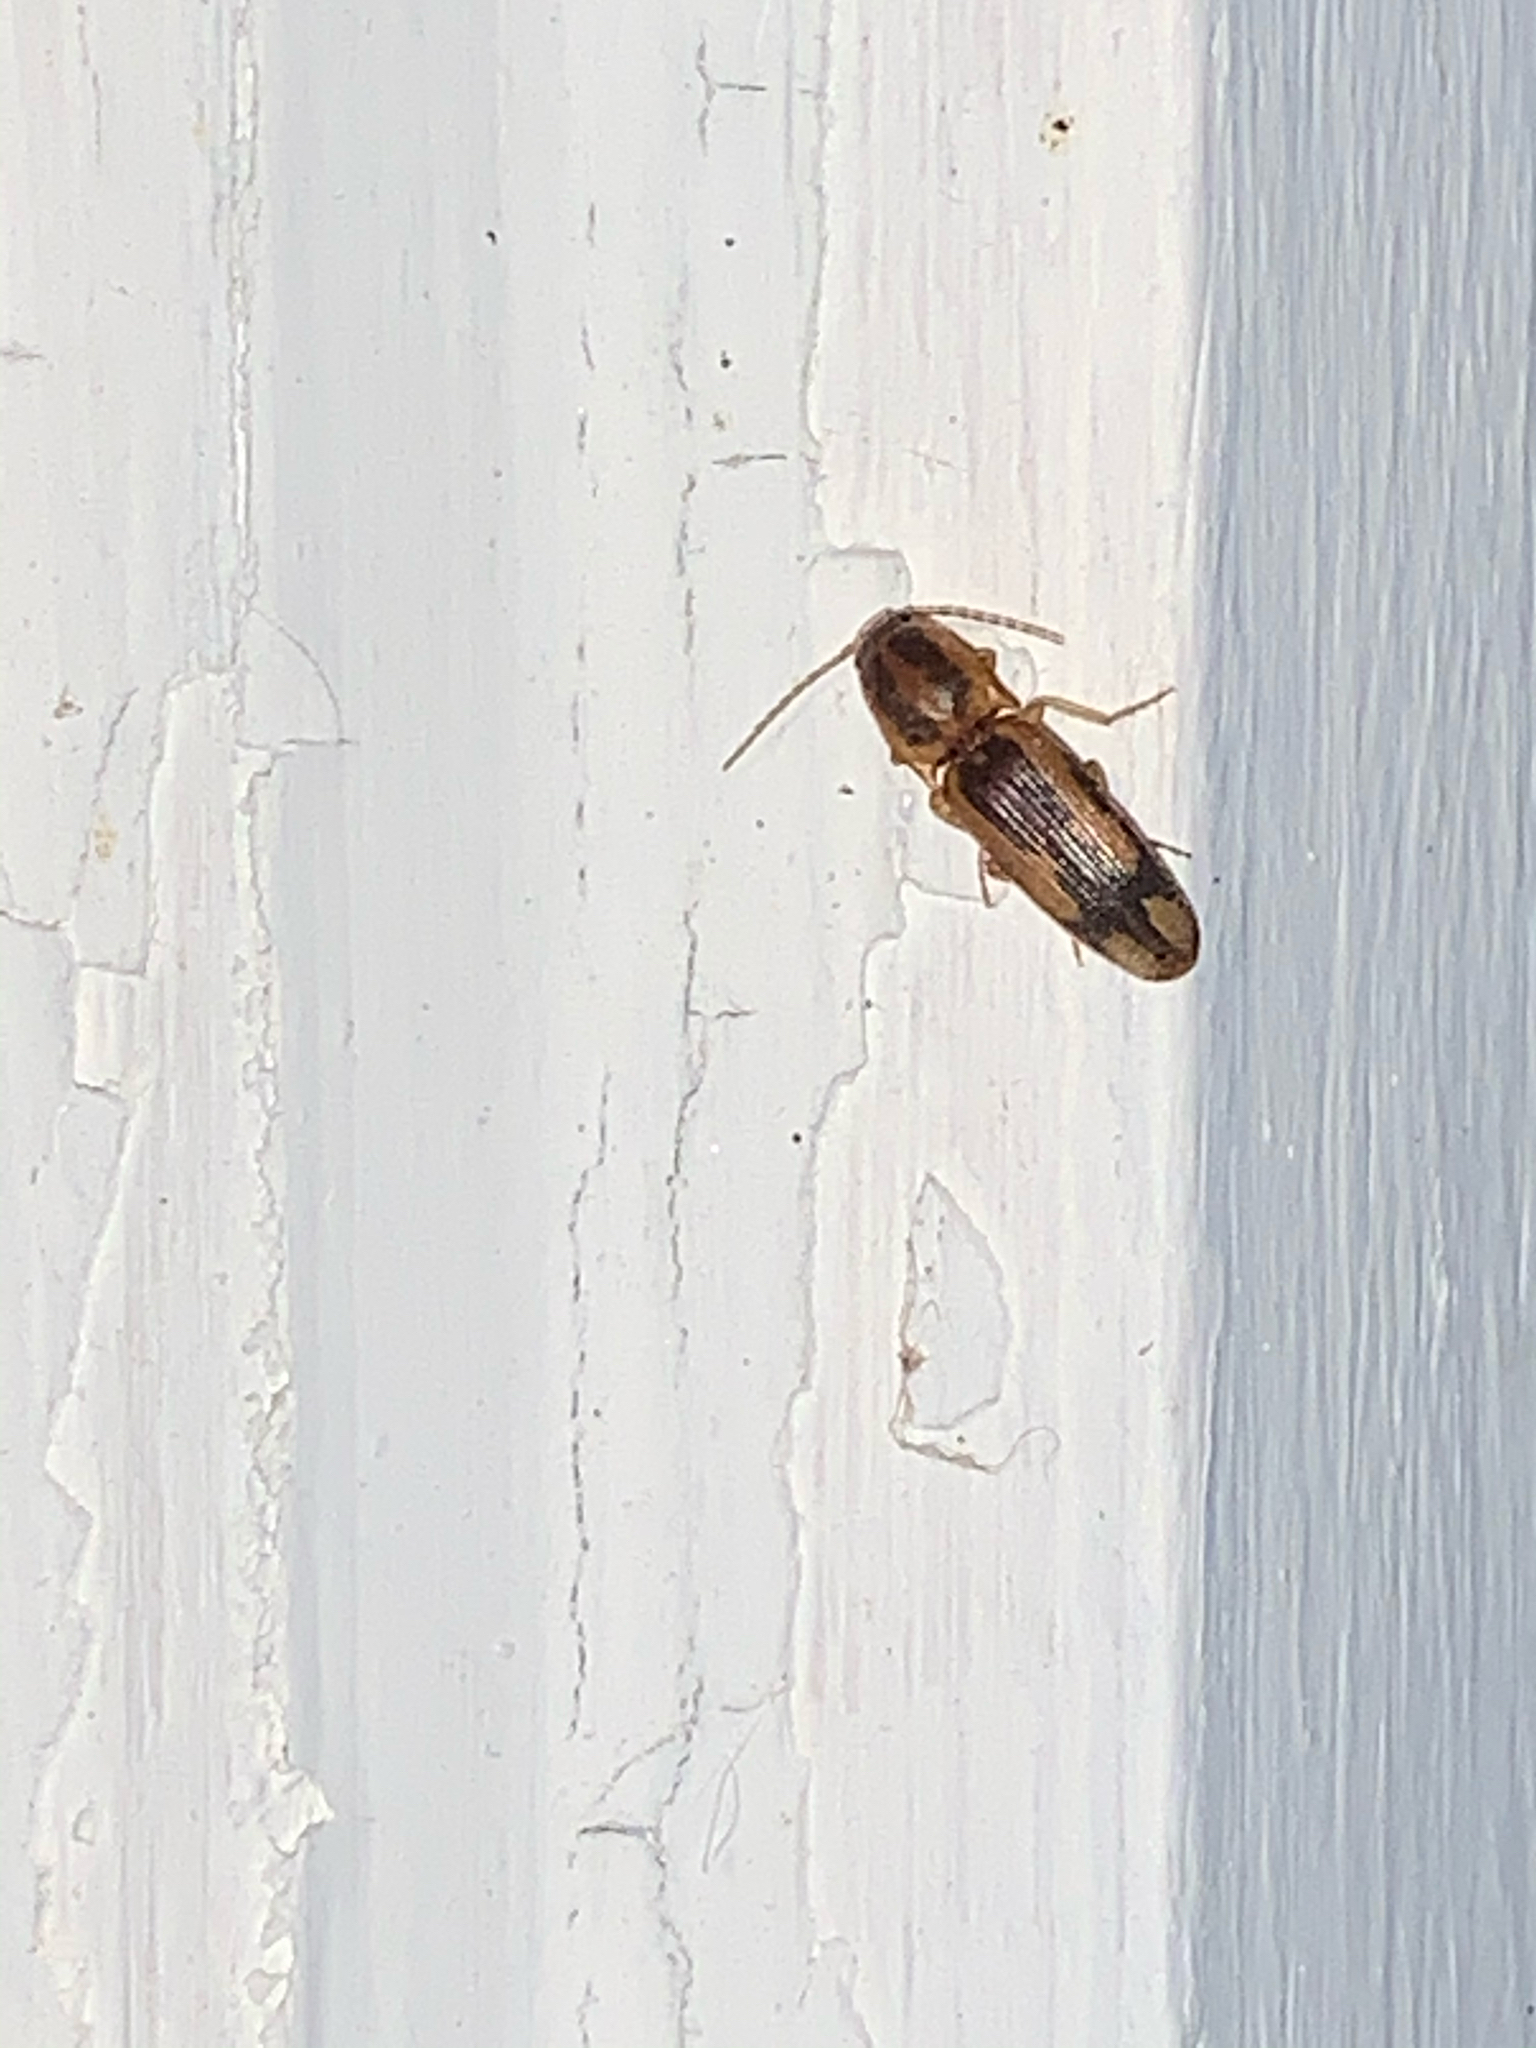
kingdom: Animalia
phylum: Arthropoda
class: Insecta
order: Coleoptera
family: Elateridae
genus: Monocrepidius
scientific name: Monocrepidius
